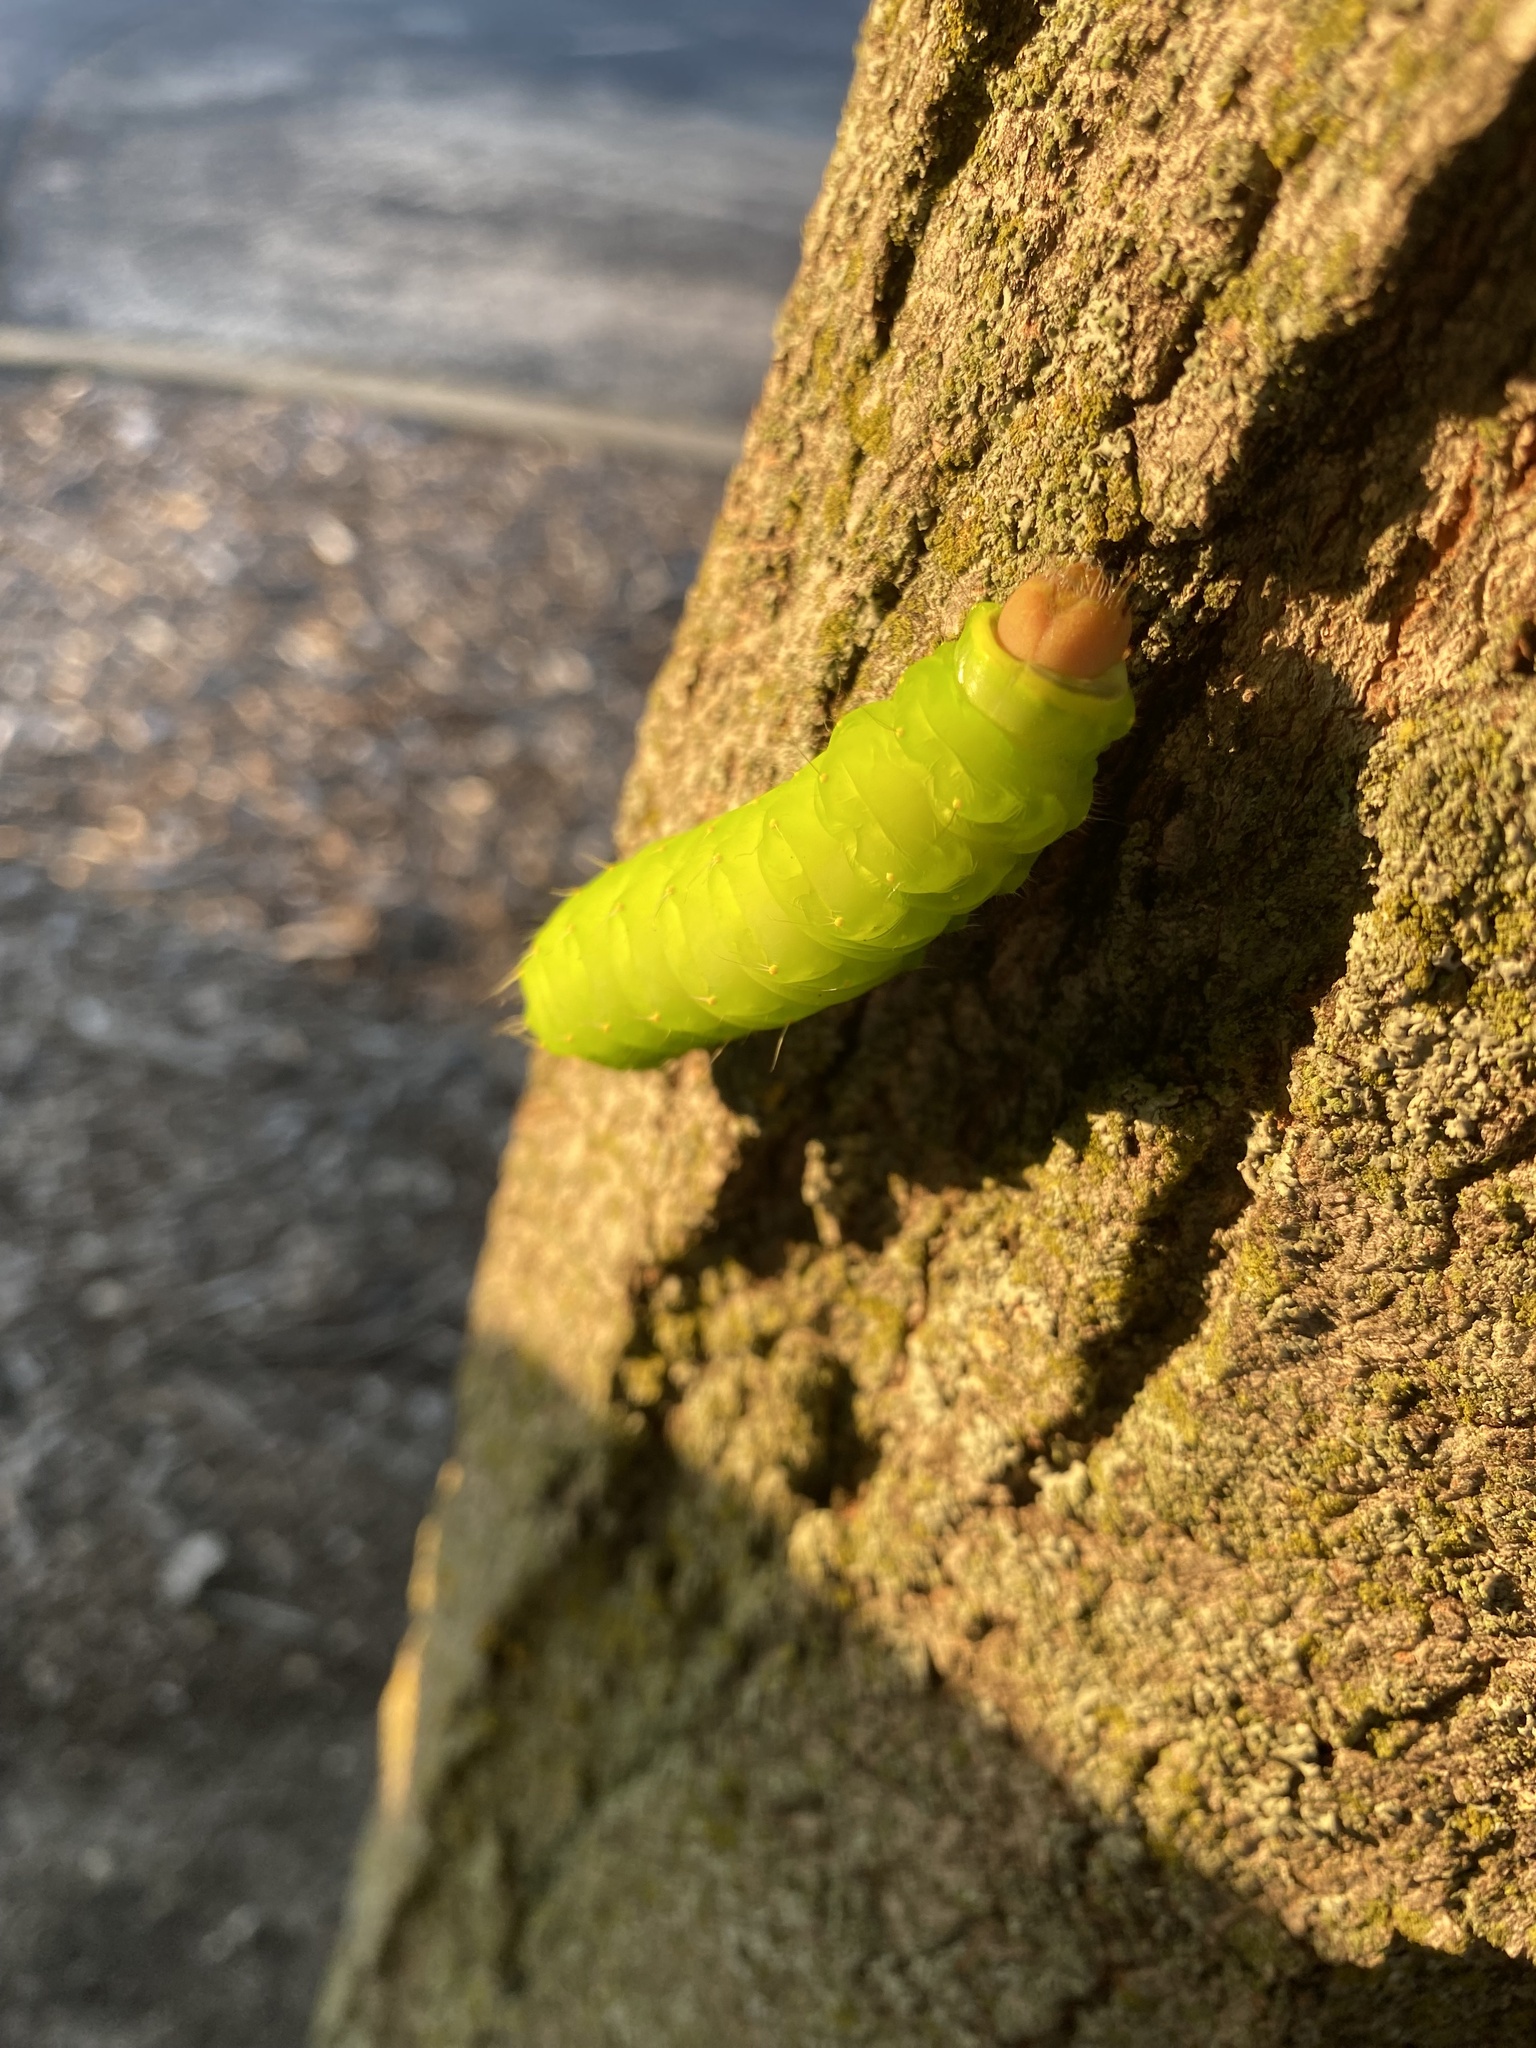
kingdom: Animalia
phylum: Arthropoda
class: Insecta
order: Lepidoptera
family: Saturniidae
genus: Antheraea
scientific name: Antheraea polyphemus
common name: Polyphemus moth
